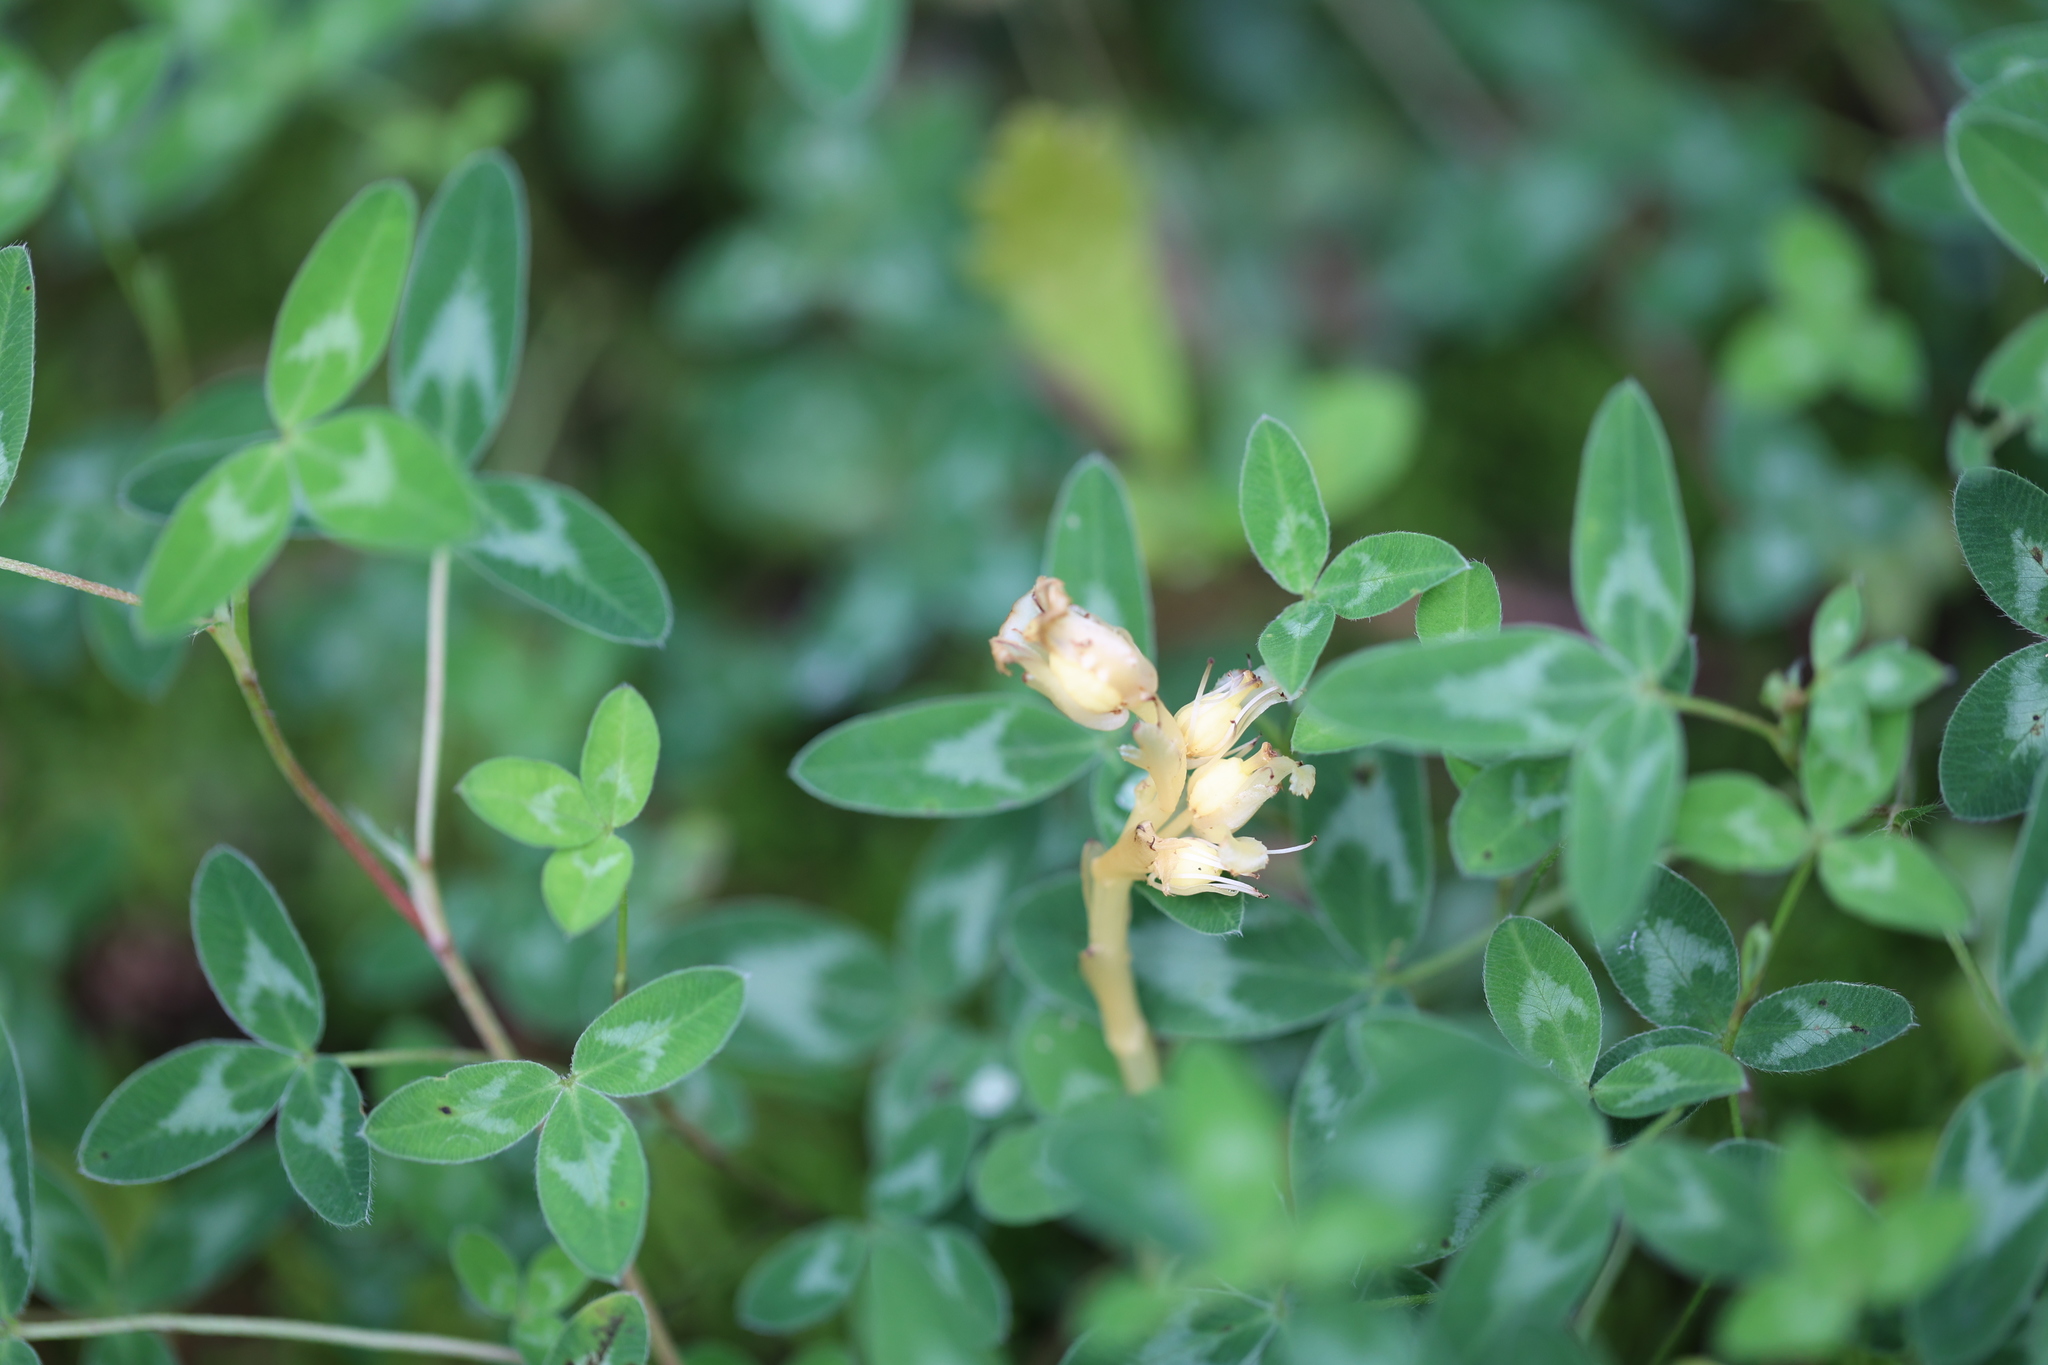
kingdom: Plantae
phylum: Tracheophyta
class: Magnoliopsida
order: Ericales
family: Ericaceae
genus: Hypopitys
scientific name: Hypopitys monotropa
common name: Yellow bird's-nest
